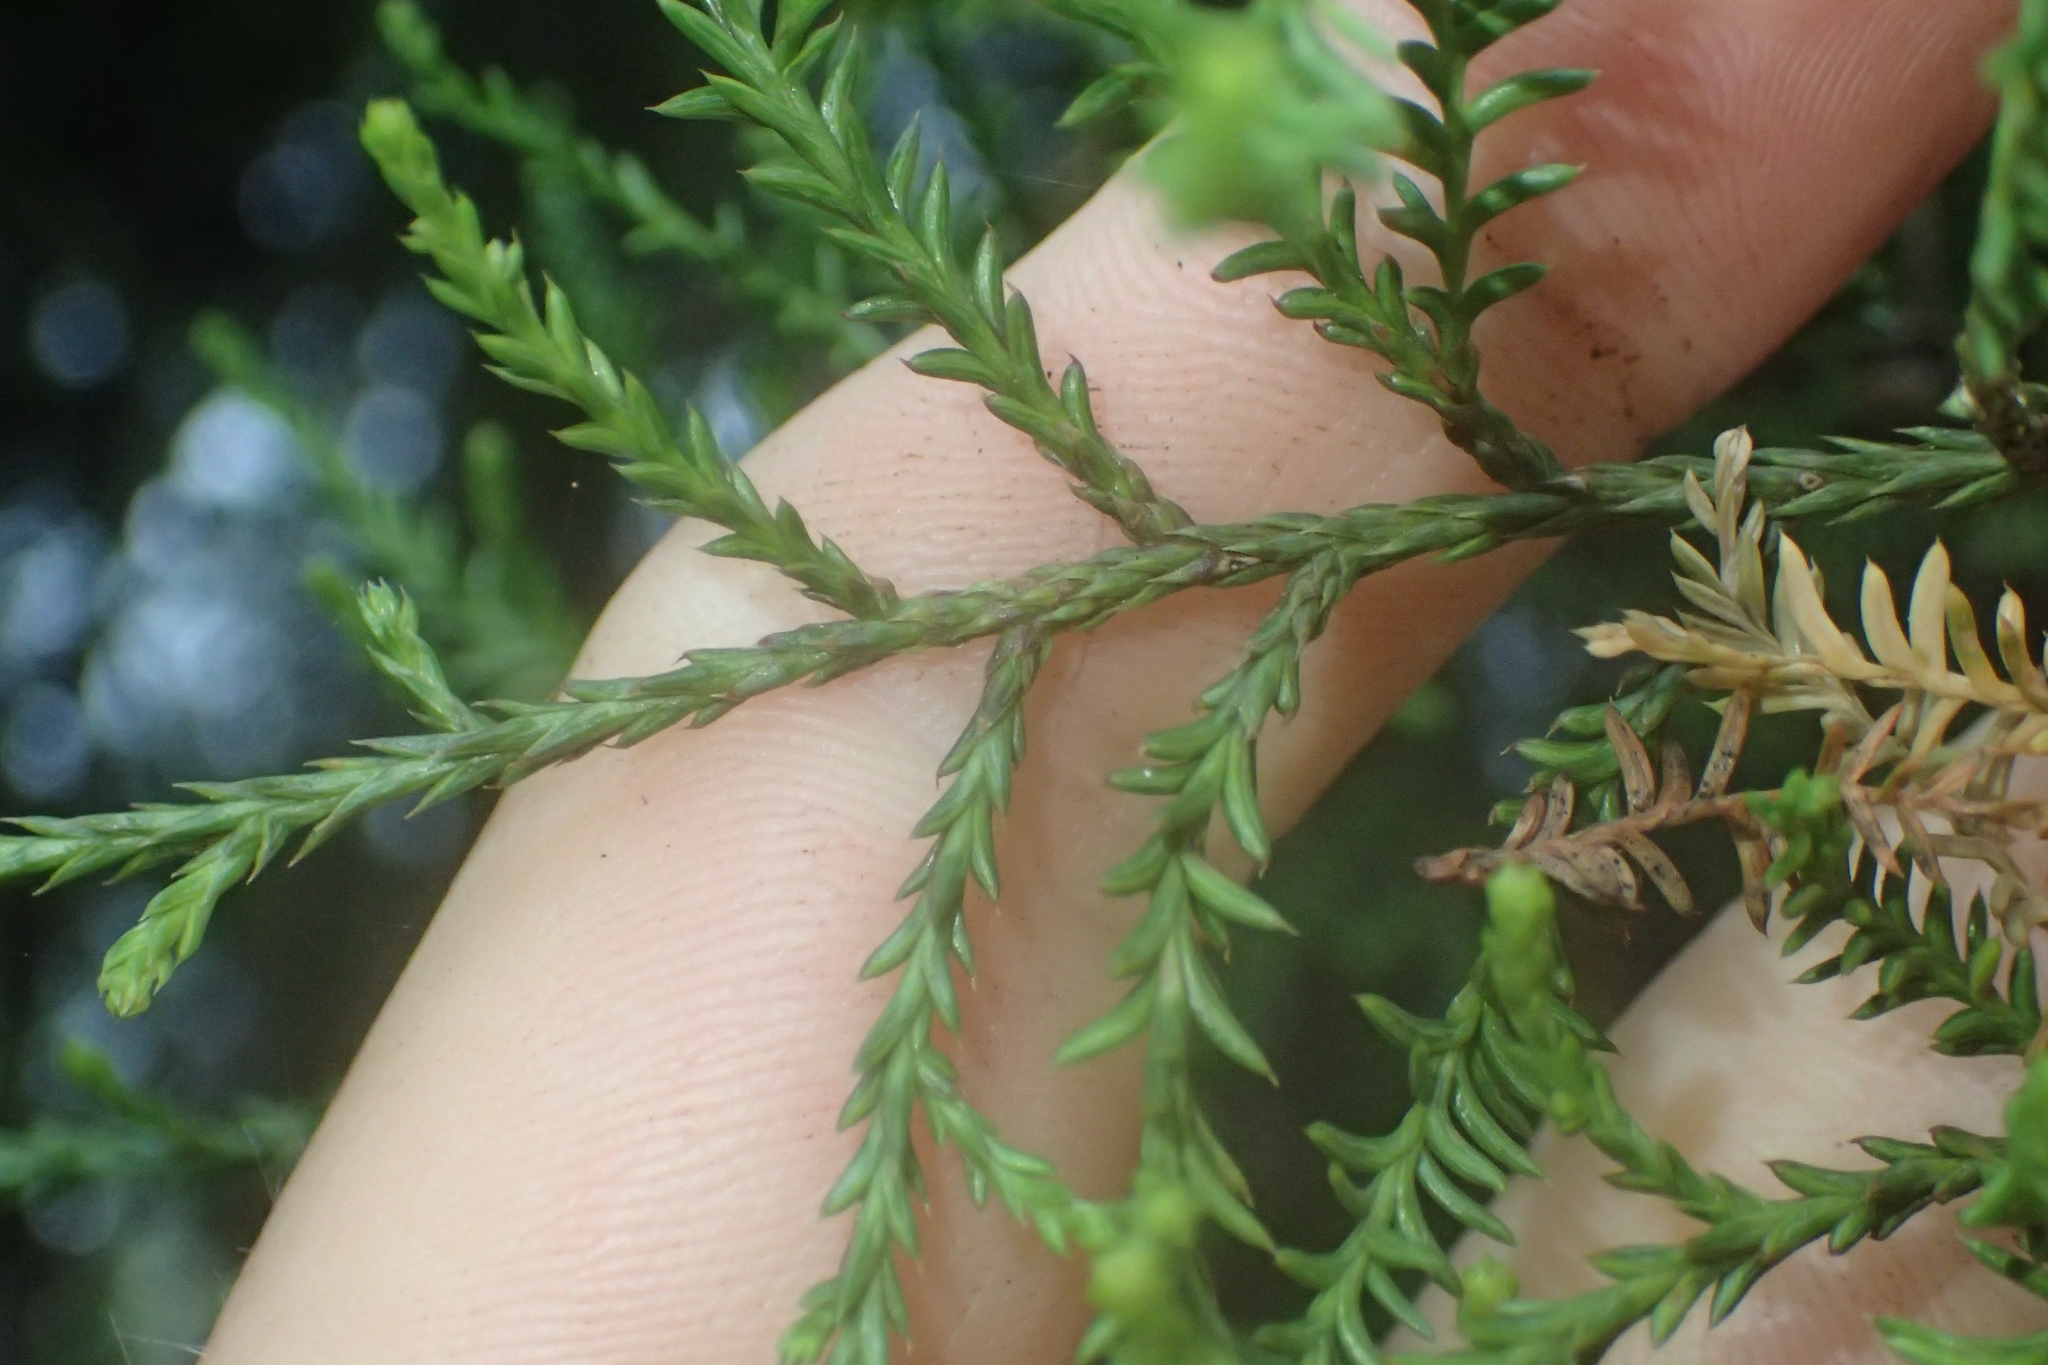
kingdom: Plantae
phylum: Tracheophyta
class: Pinopsida
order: Pinales
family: Podocarpaceae
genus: Dacrycarpus
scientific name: Dacrycarpus dacrydioides
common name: White pine
